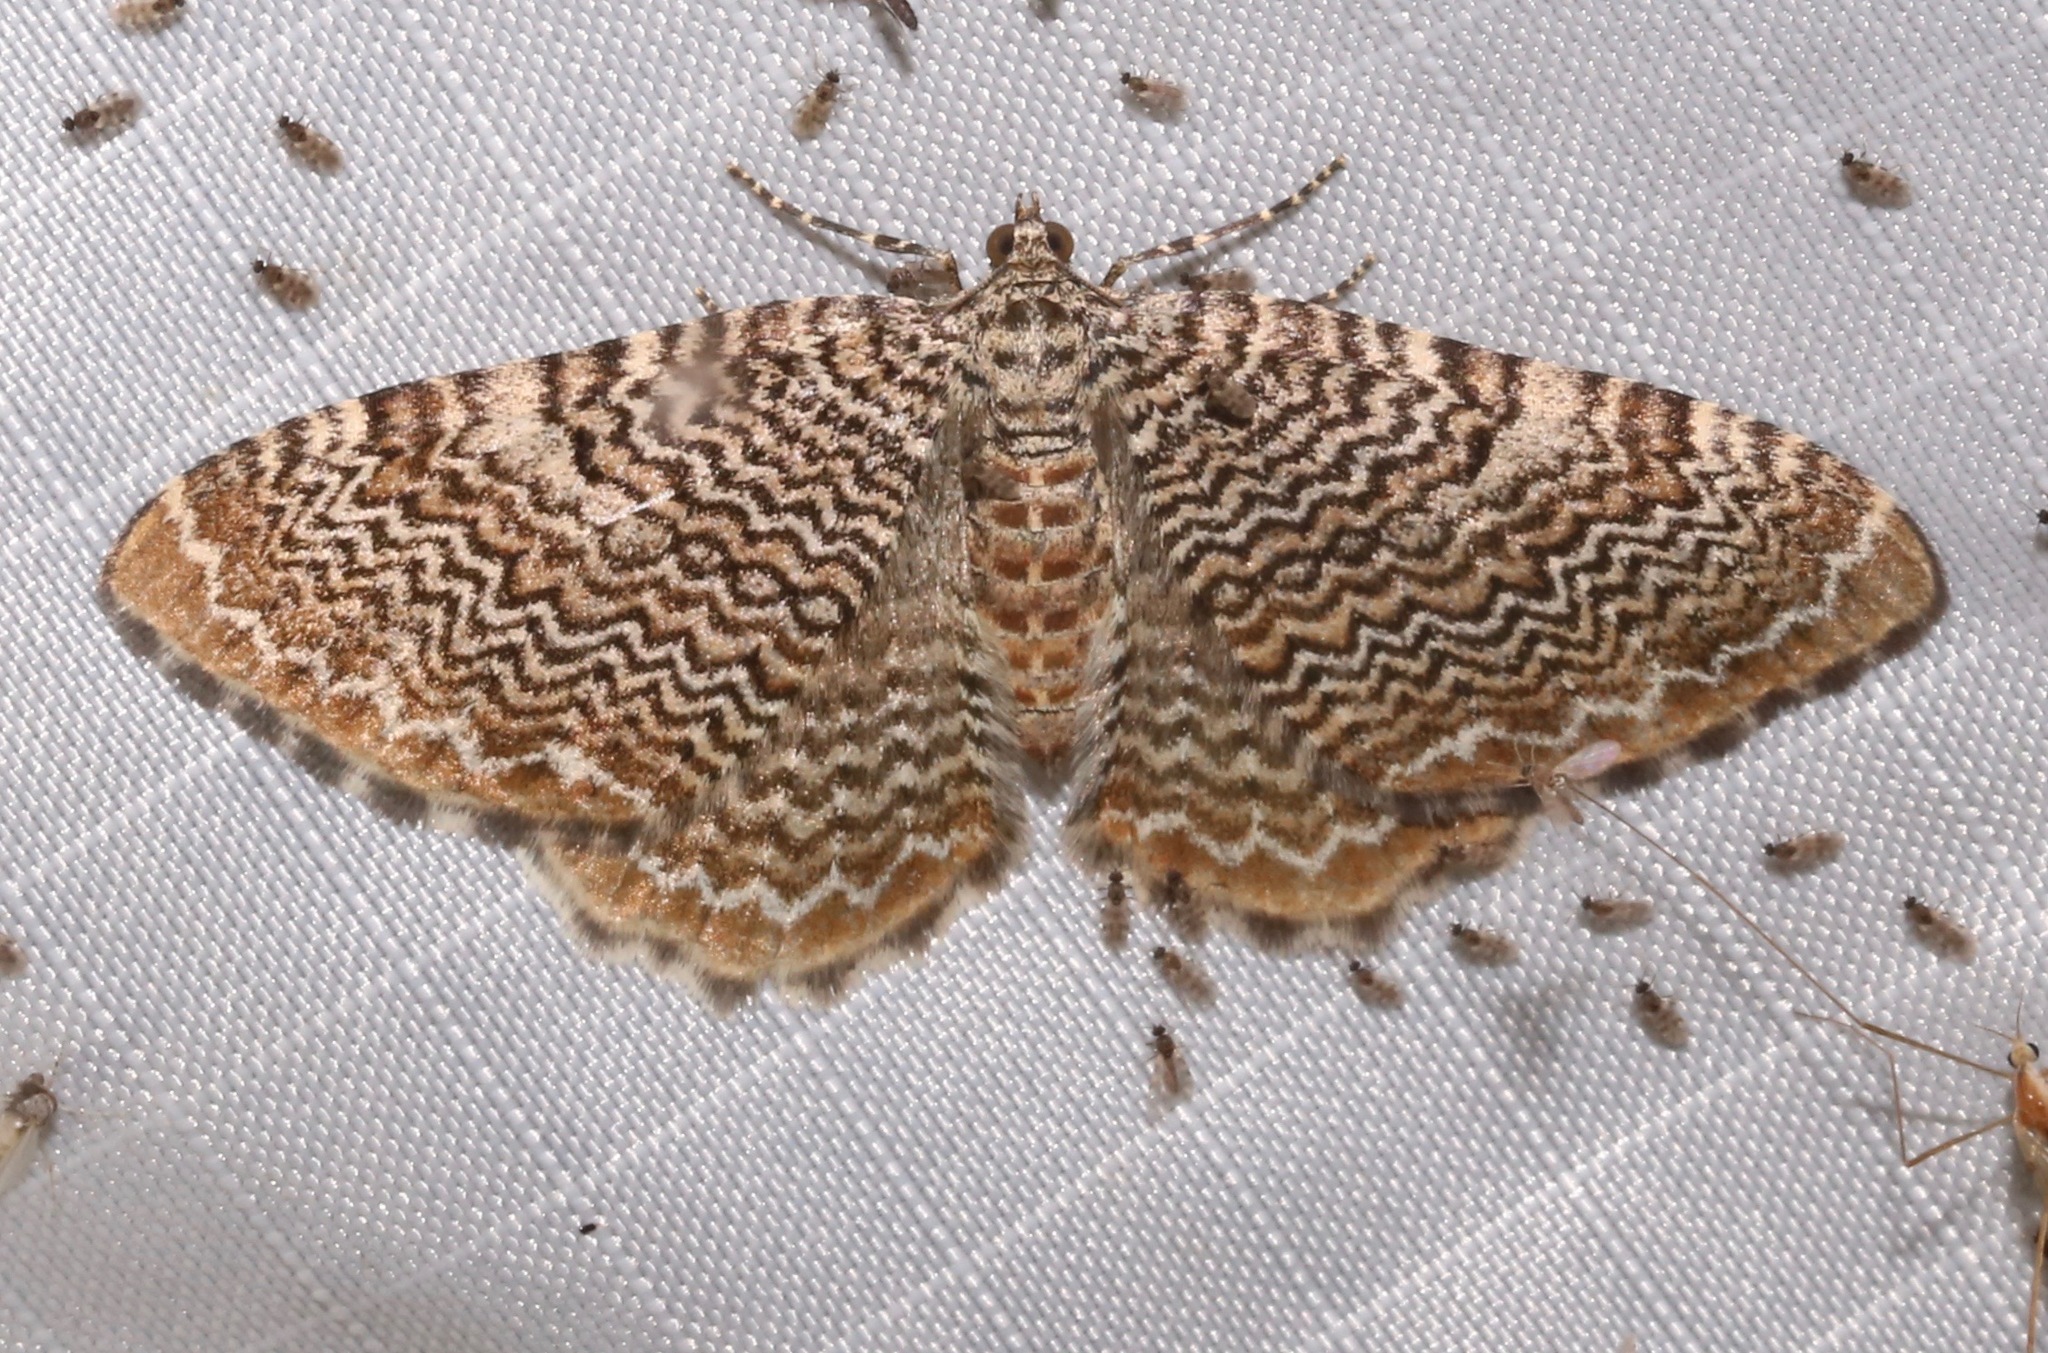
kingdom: Animalia
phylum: Arthropoda
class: Insecta
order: Lepidoptera
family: Geometridae
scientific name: Geometridae
